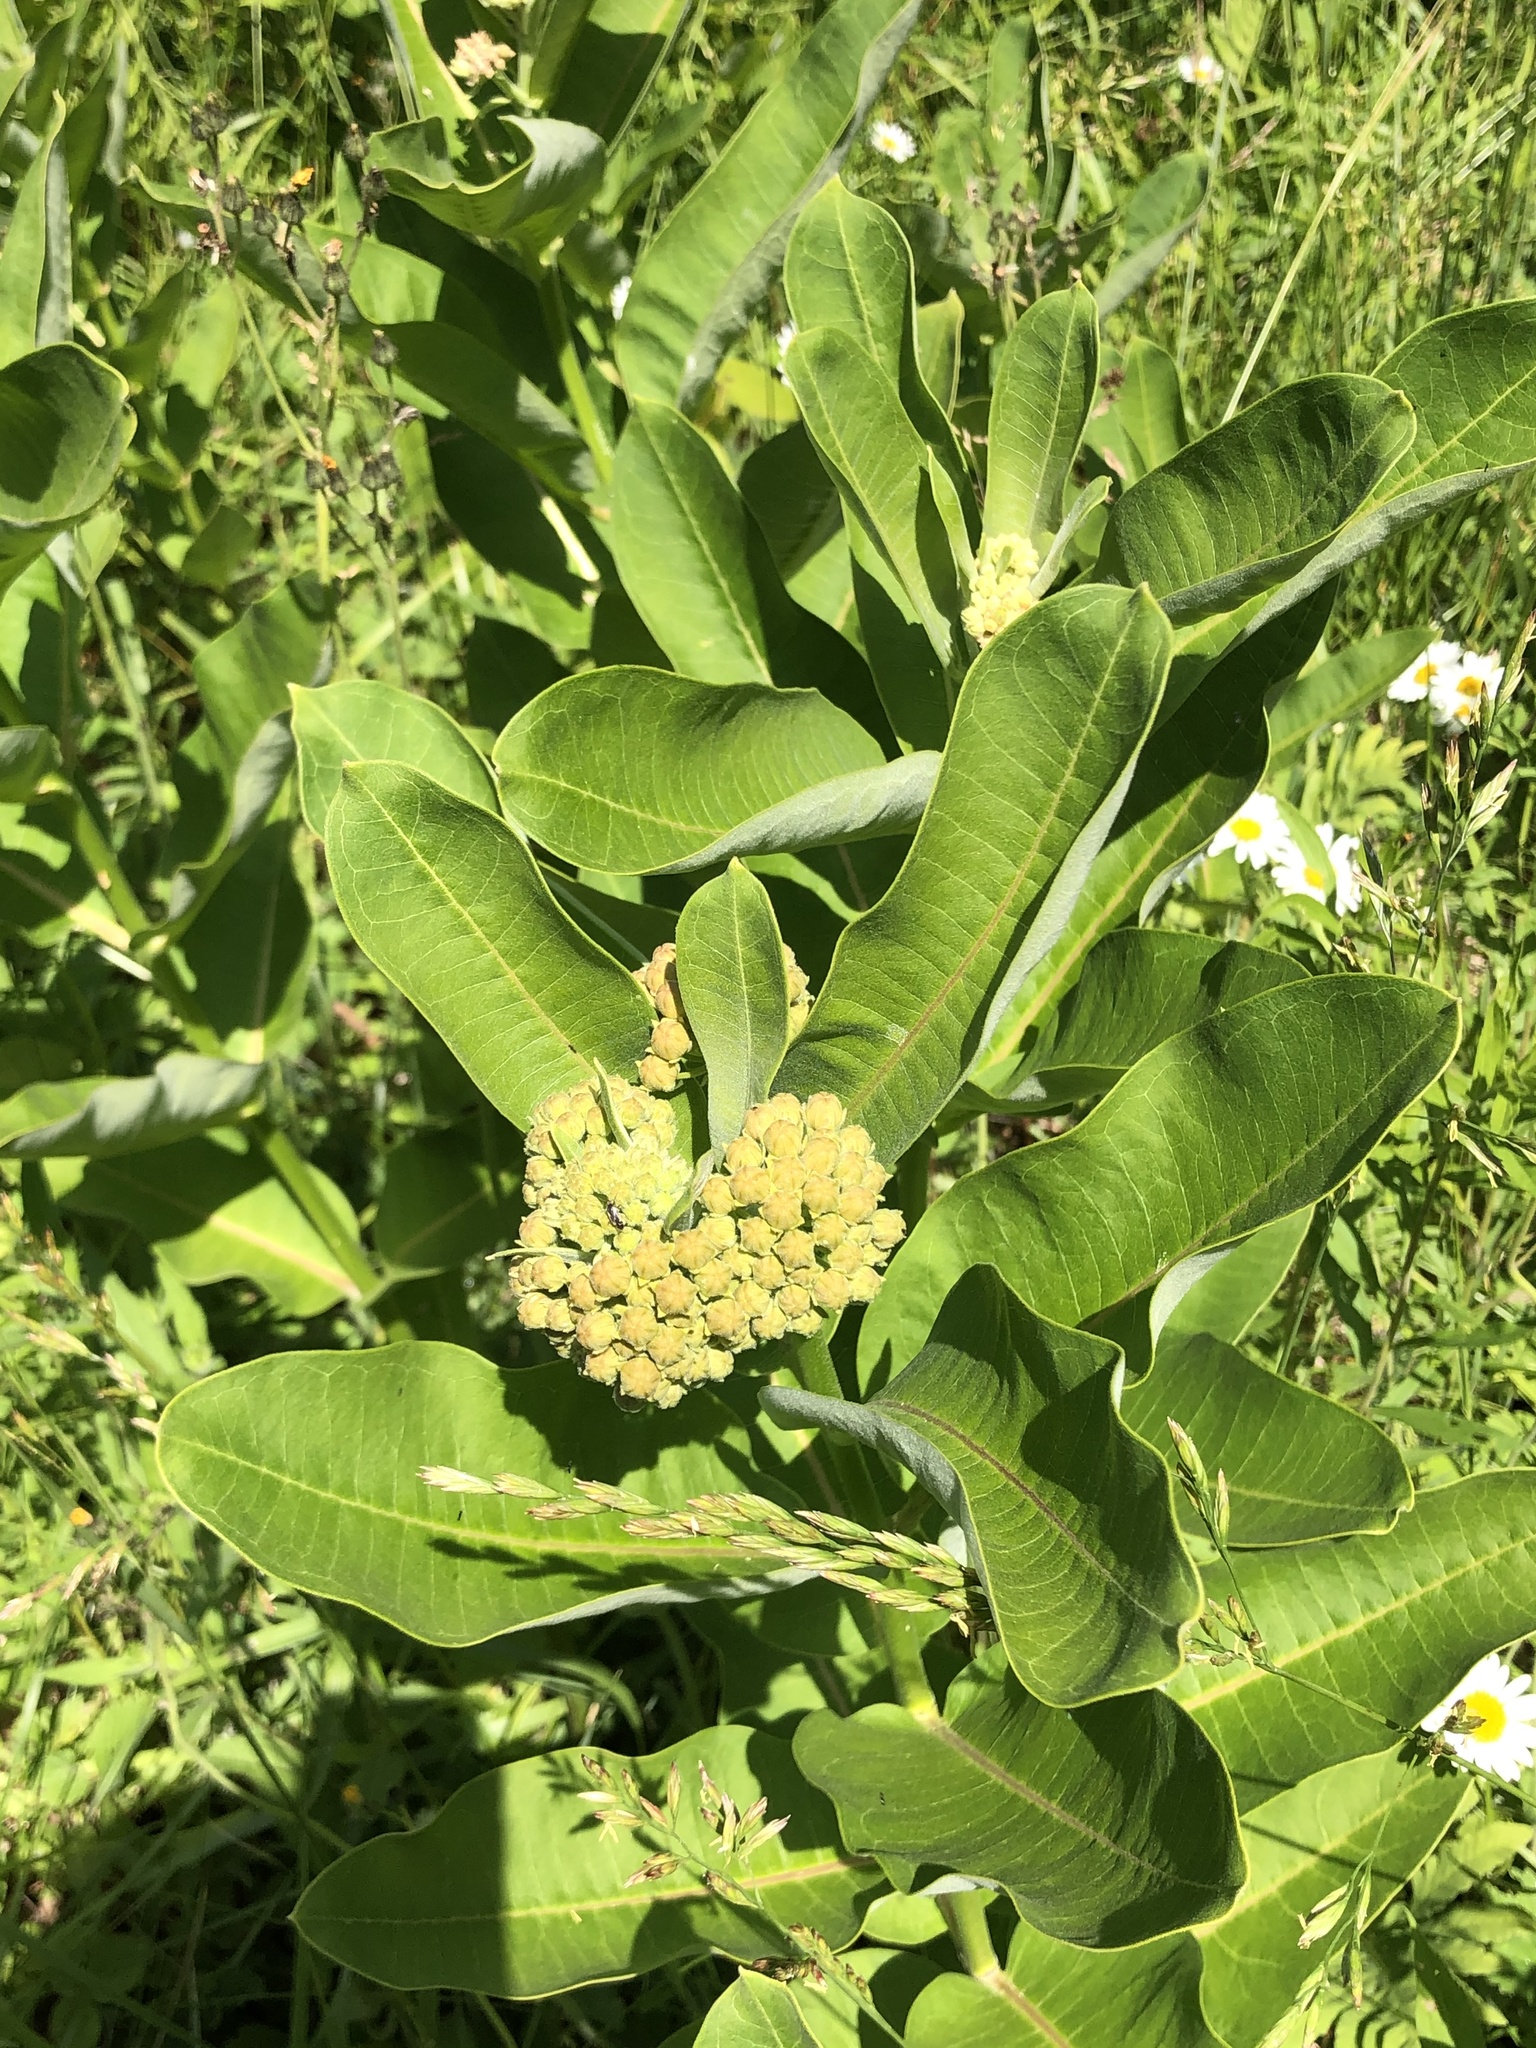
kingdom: Plantae
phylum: Tracheophyta
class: Magnoliopsida
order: Gentianales
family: Apocynaceae
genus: Asclepias
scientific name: Asclepias syriaca
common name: Common milkweed
